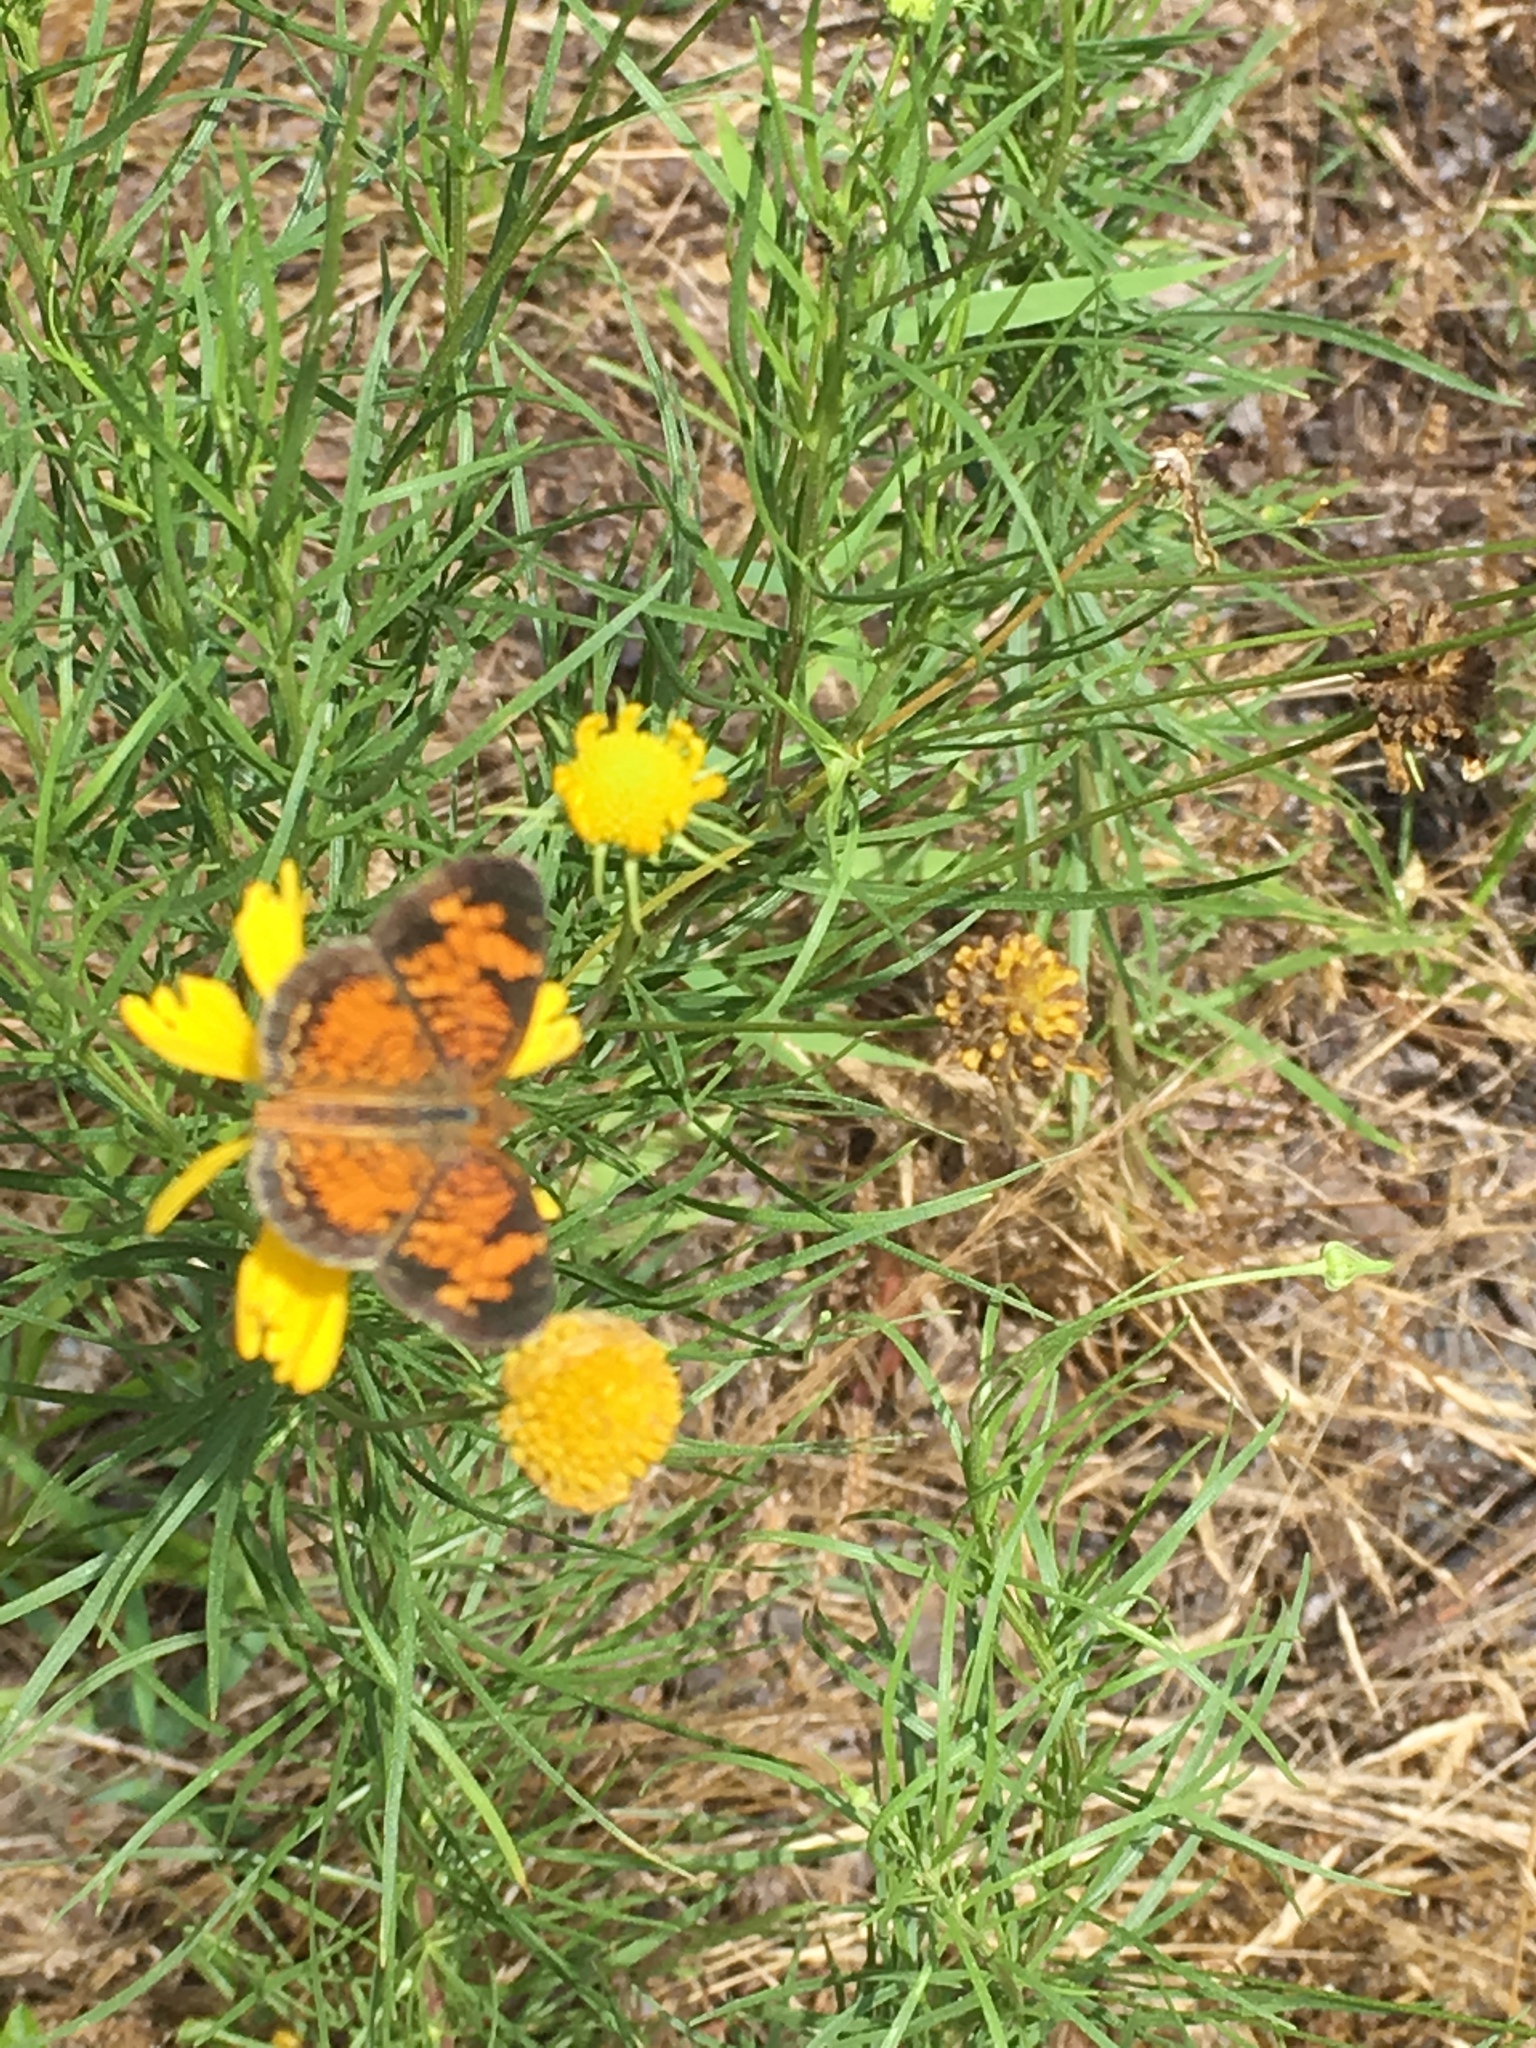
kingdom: Animalia
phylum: Arthropoda
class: Insecta
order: Lepidoptera
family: Nymphalidae
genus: Phyciodes
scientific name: Phyciodes tharos
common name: Pearl crescent
